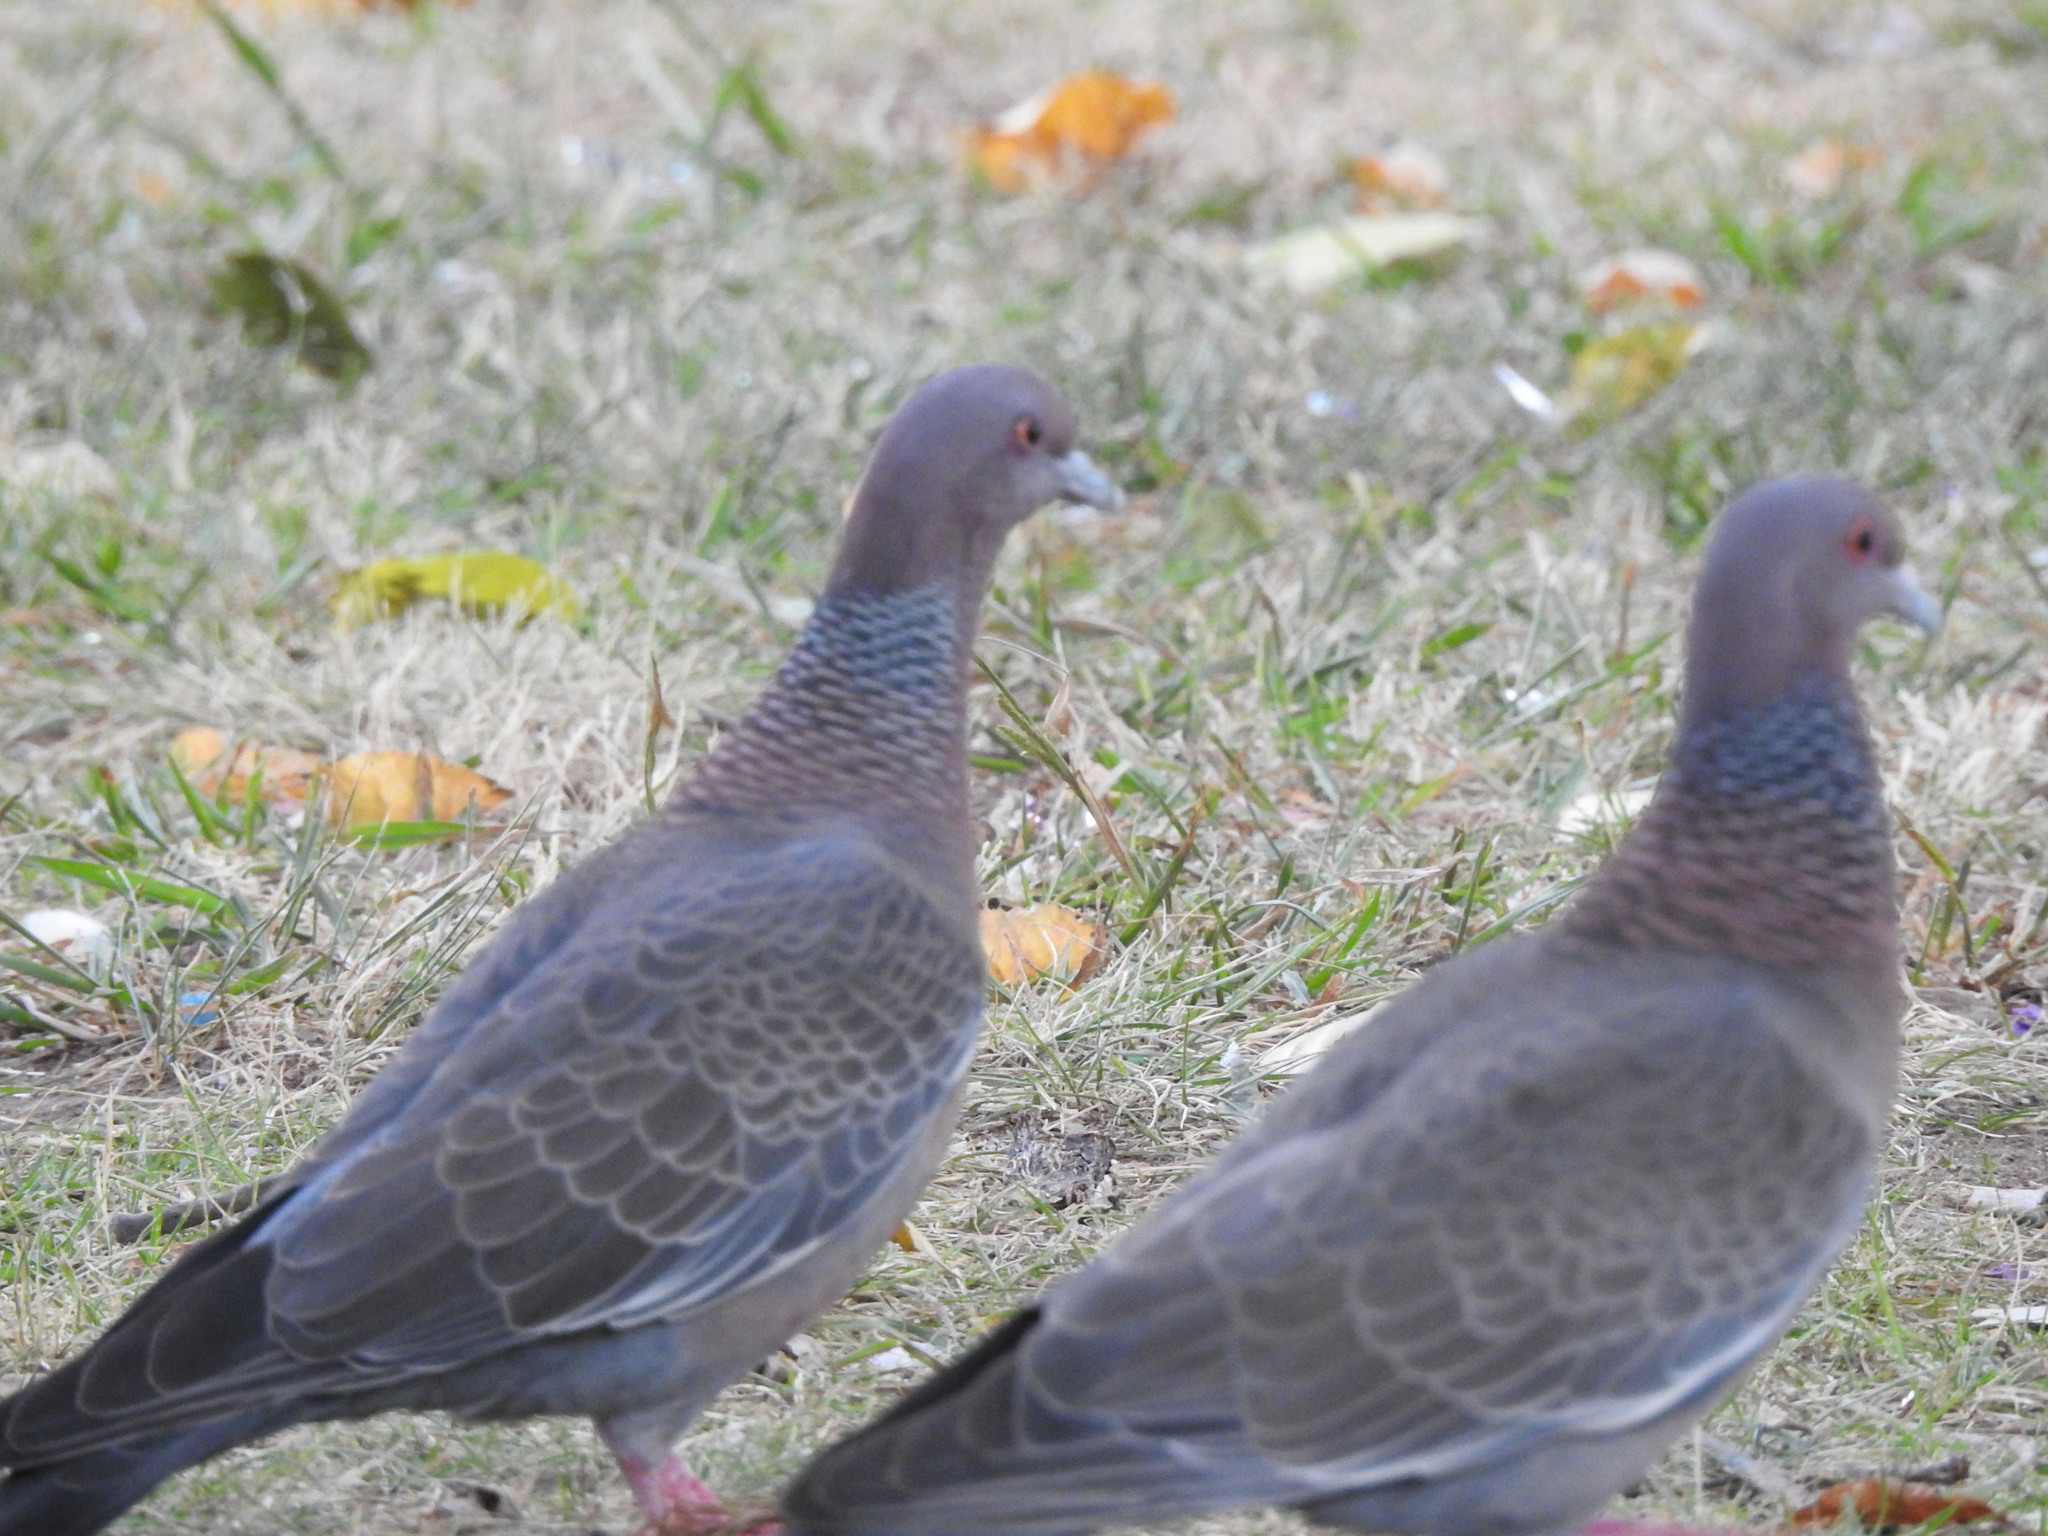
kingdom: Animalia
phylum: Chordata
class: Aves
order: Columbiformes
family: Columbidae
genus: Patagioenas
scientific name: Patagioenas picazuro
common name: Picazuro pigeon
